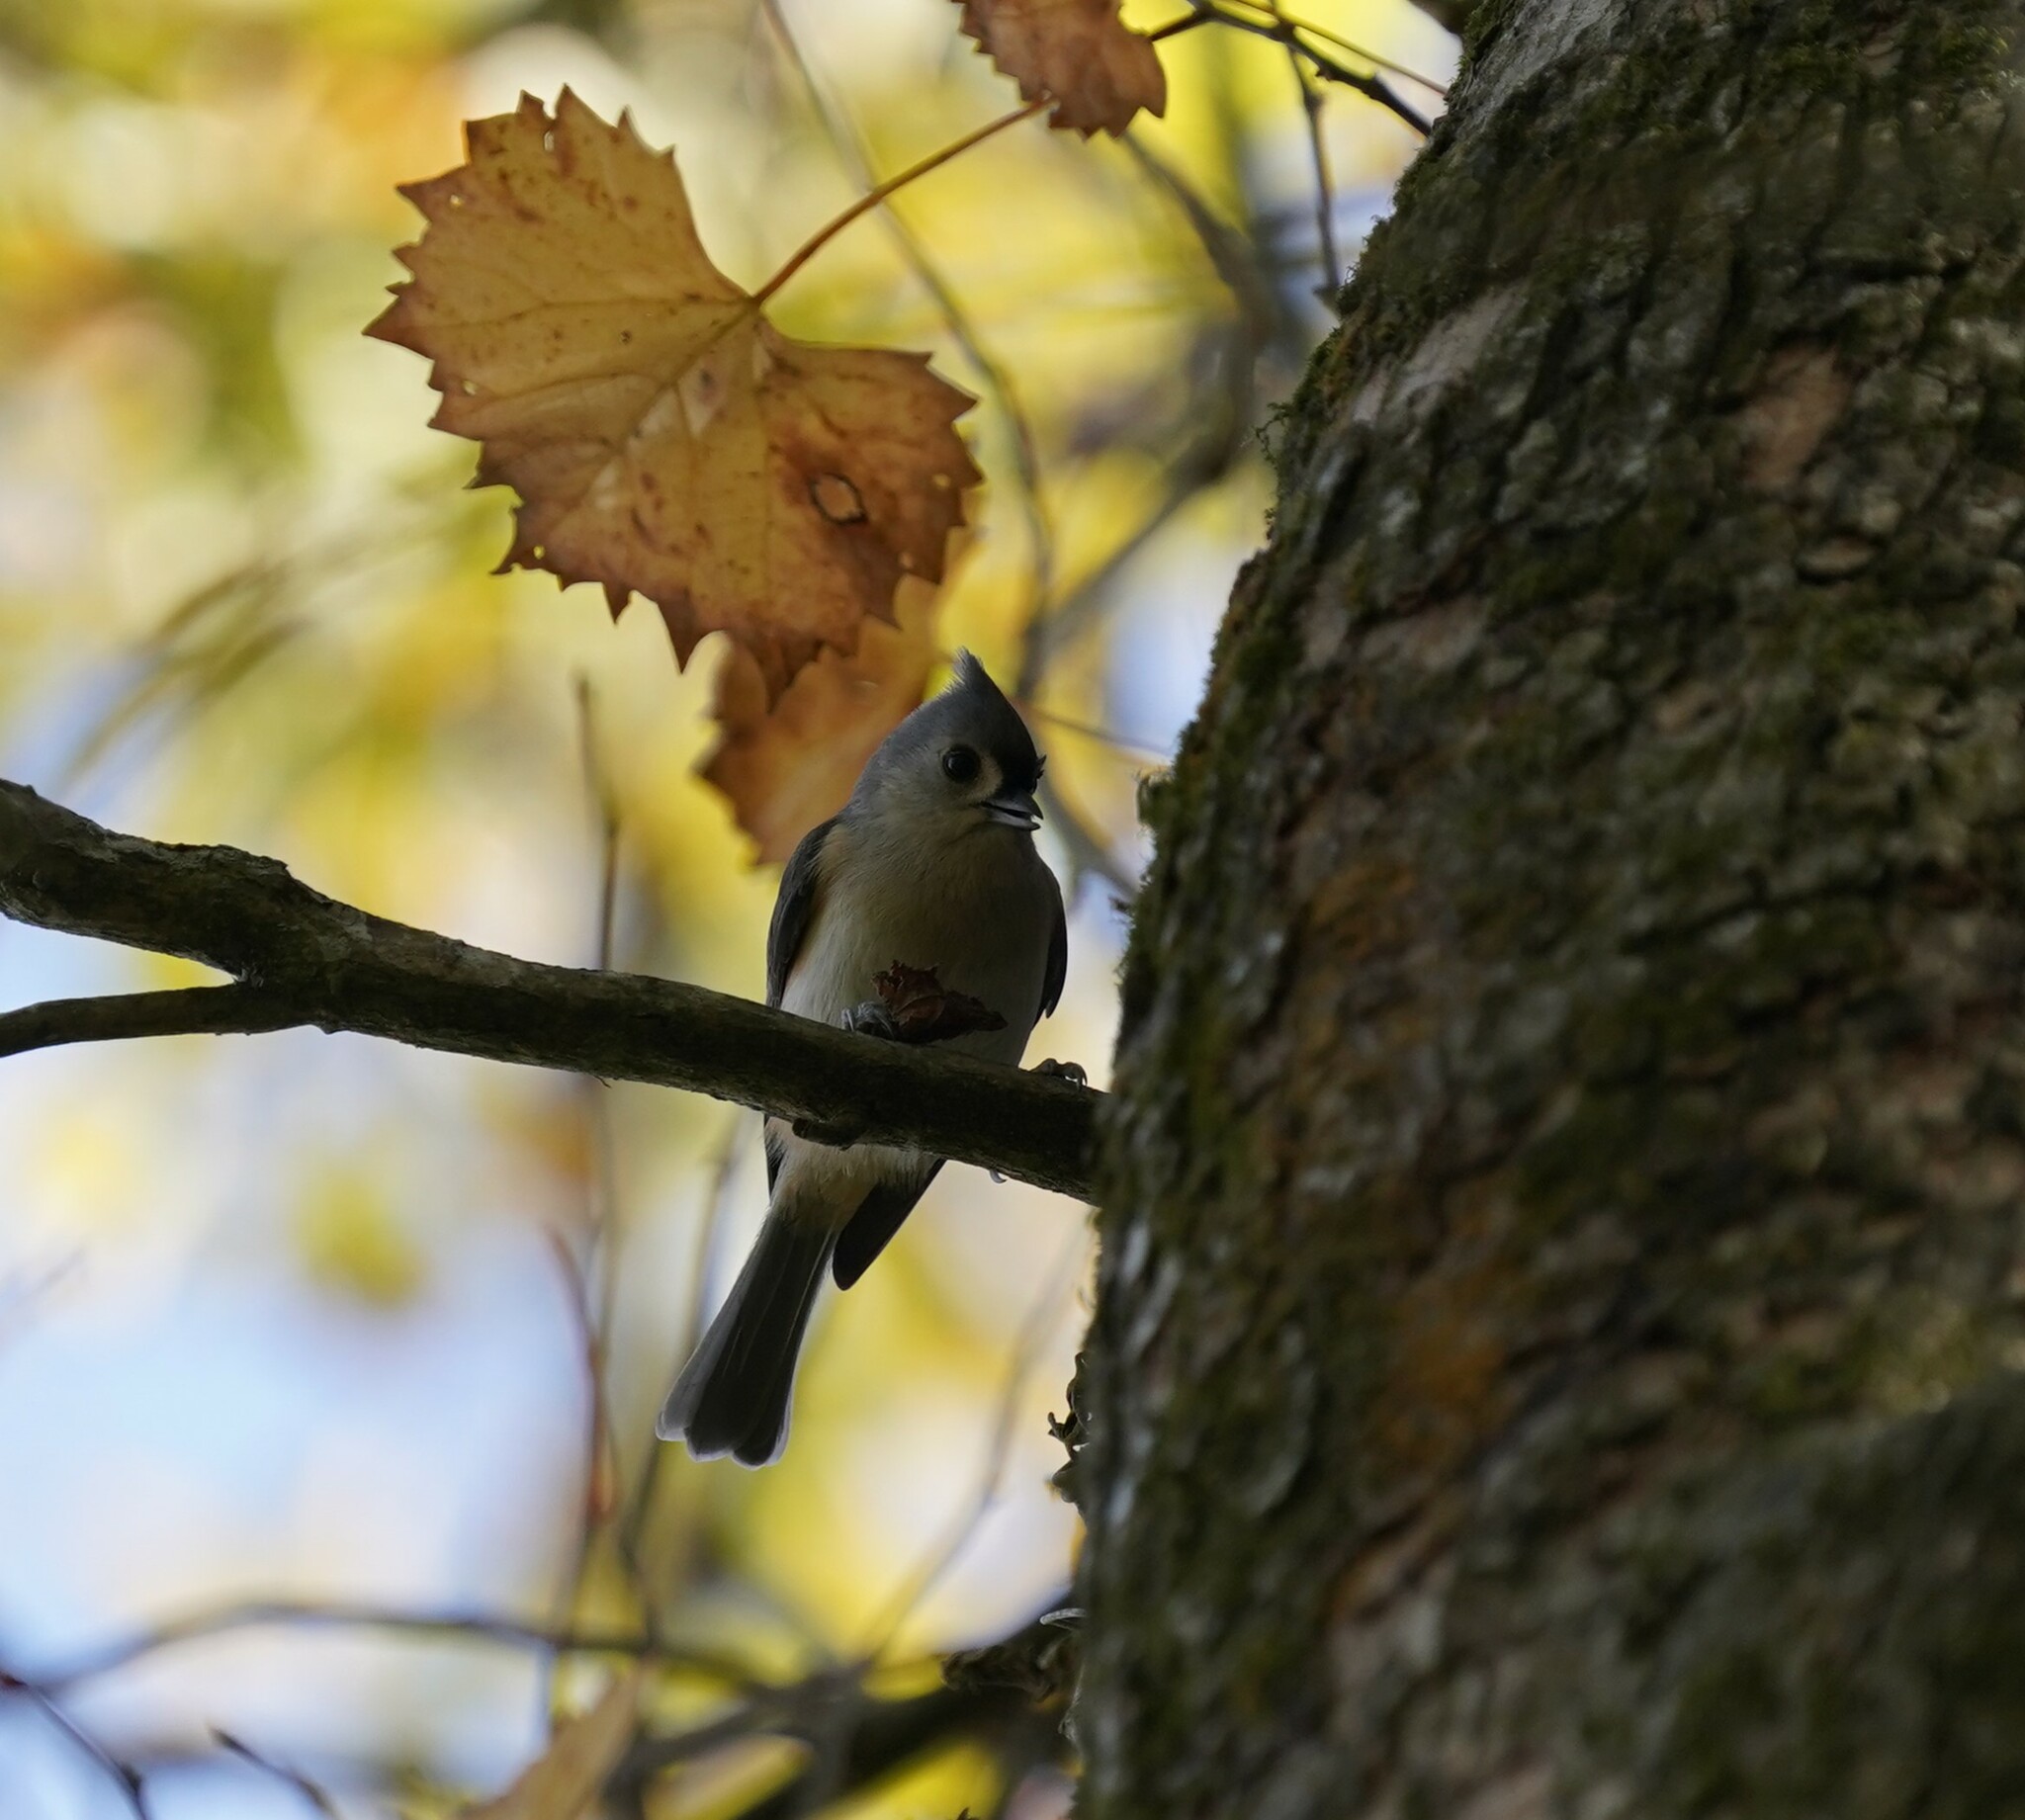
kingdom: Animalia
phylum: Chordata
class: Aves
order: Passeriformes
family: Paridae
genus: Baeolophus
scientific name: Baeolophus bicolor
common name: Tufted titmouse
